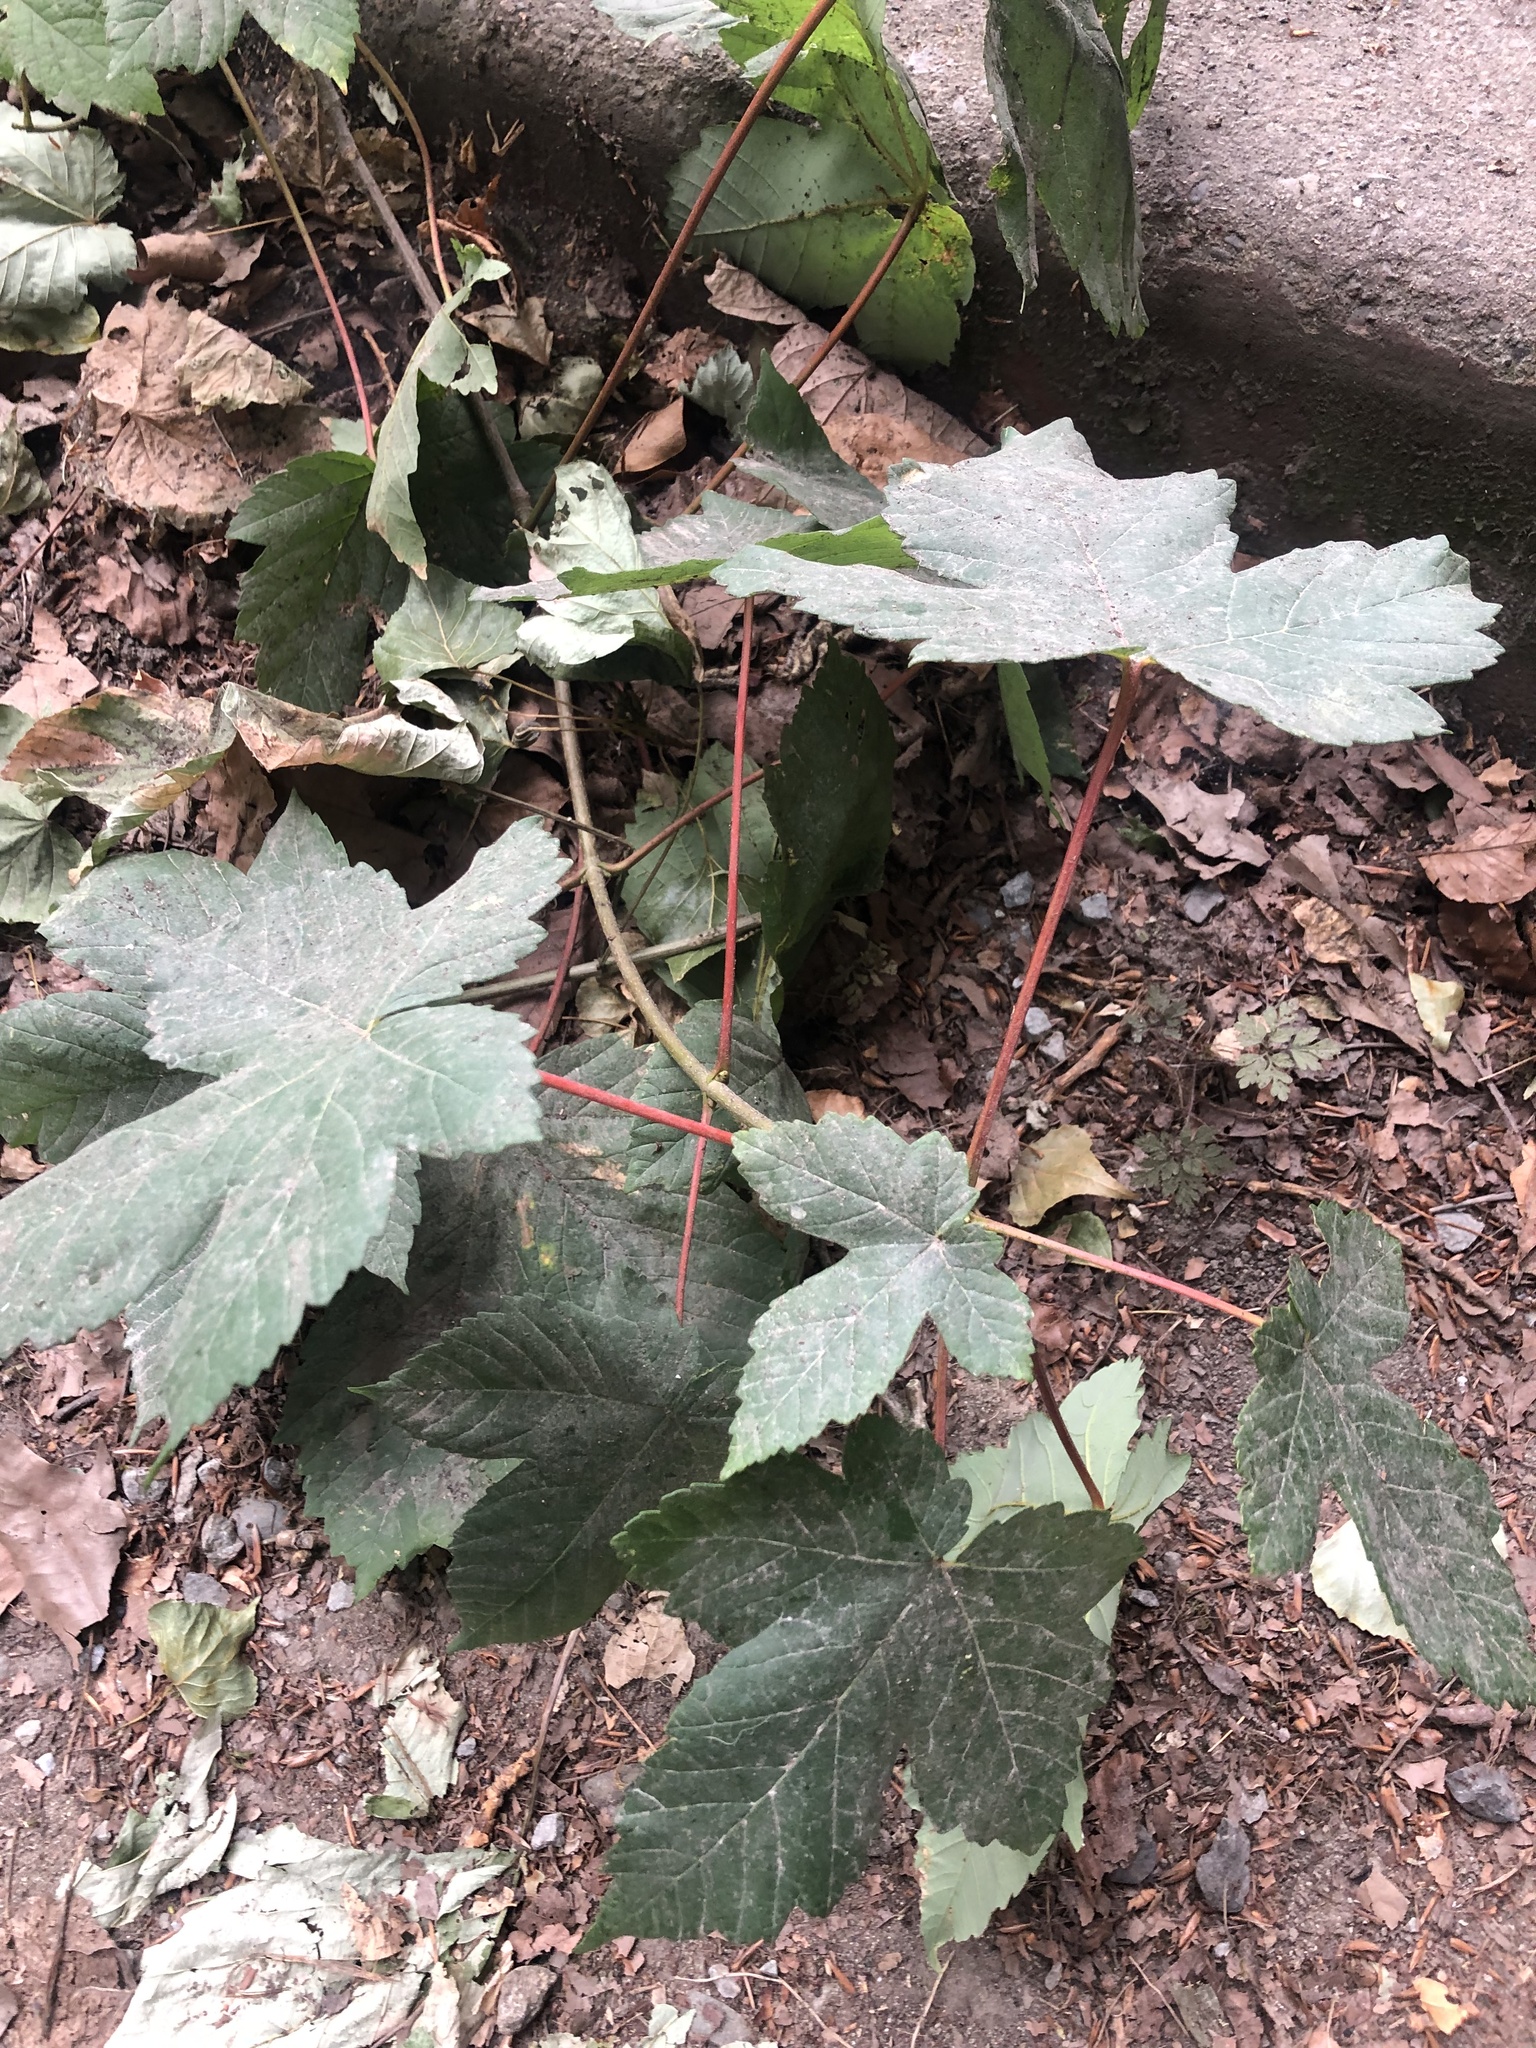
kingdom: Plantae
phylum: Tracheophyta
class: Magnoliopsida
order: Sapindales
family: Sapindaceae
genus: Acer
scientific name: Acer pseudoplatanus
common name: Sycamore
